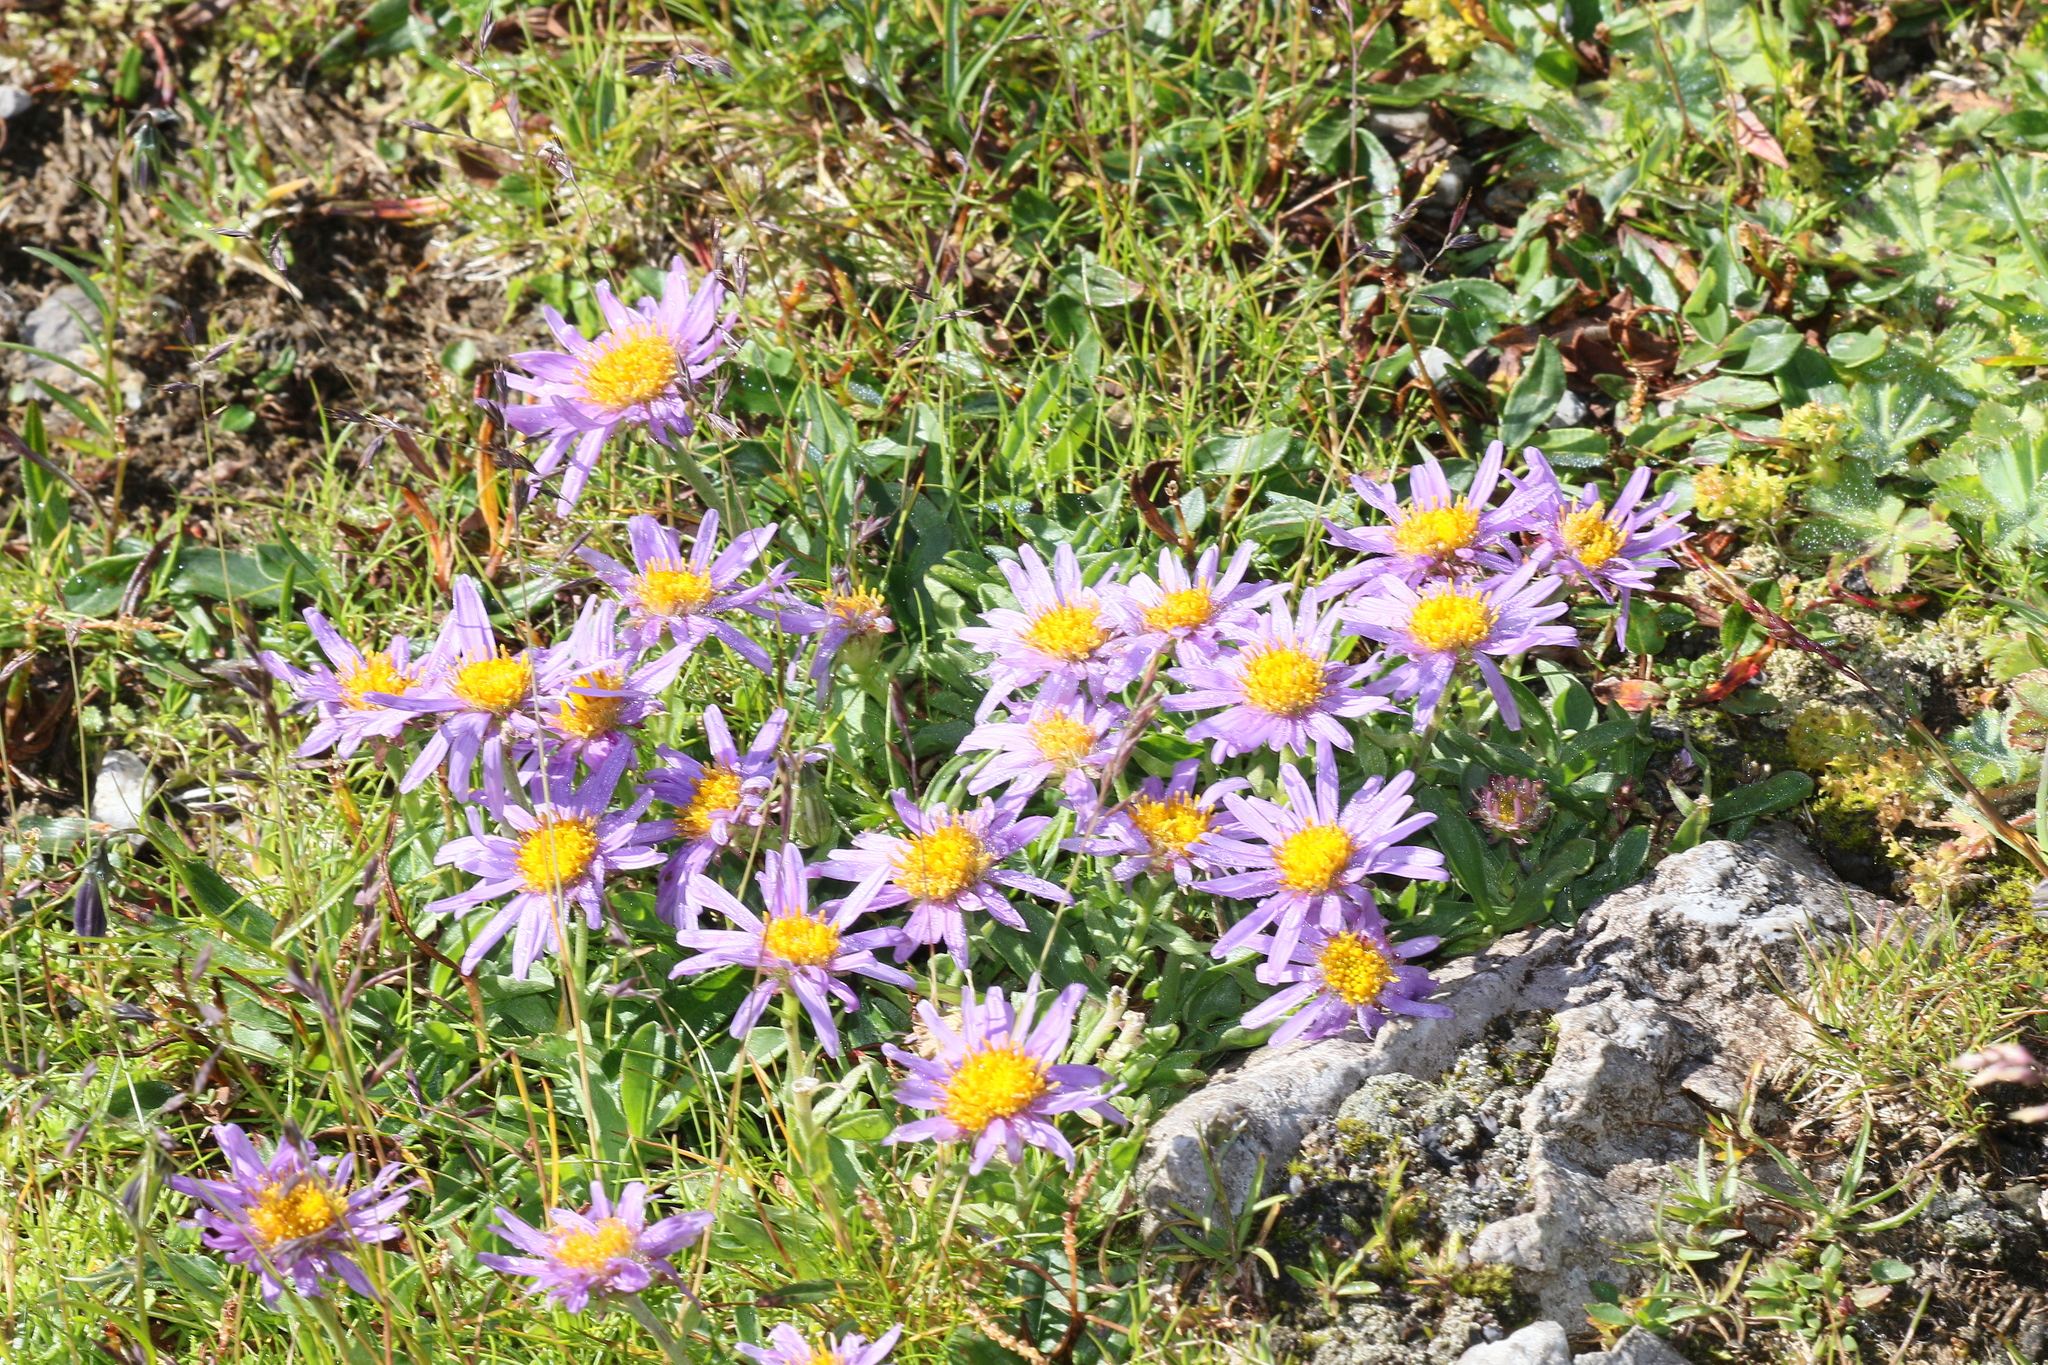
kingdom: Plantae
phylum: Tracheophyta
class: Magnoliopsida
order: Asterales
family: Asteraceae
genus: Aster
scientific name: Aster alpinus
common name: Alpine aster
